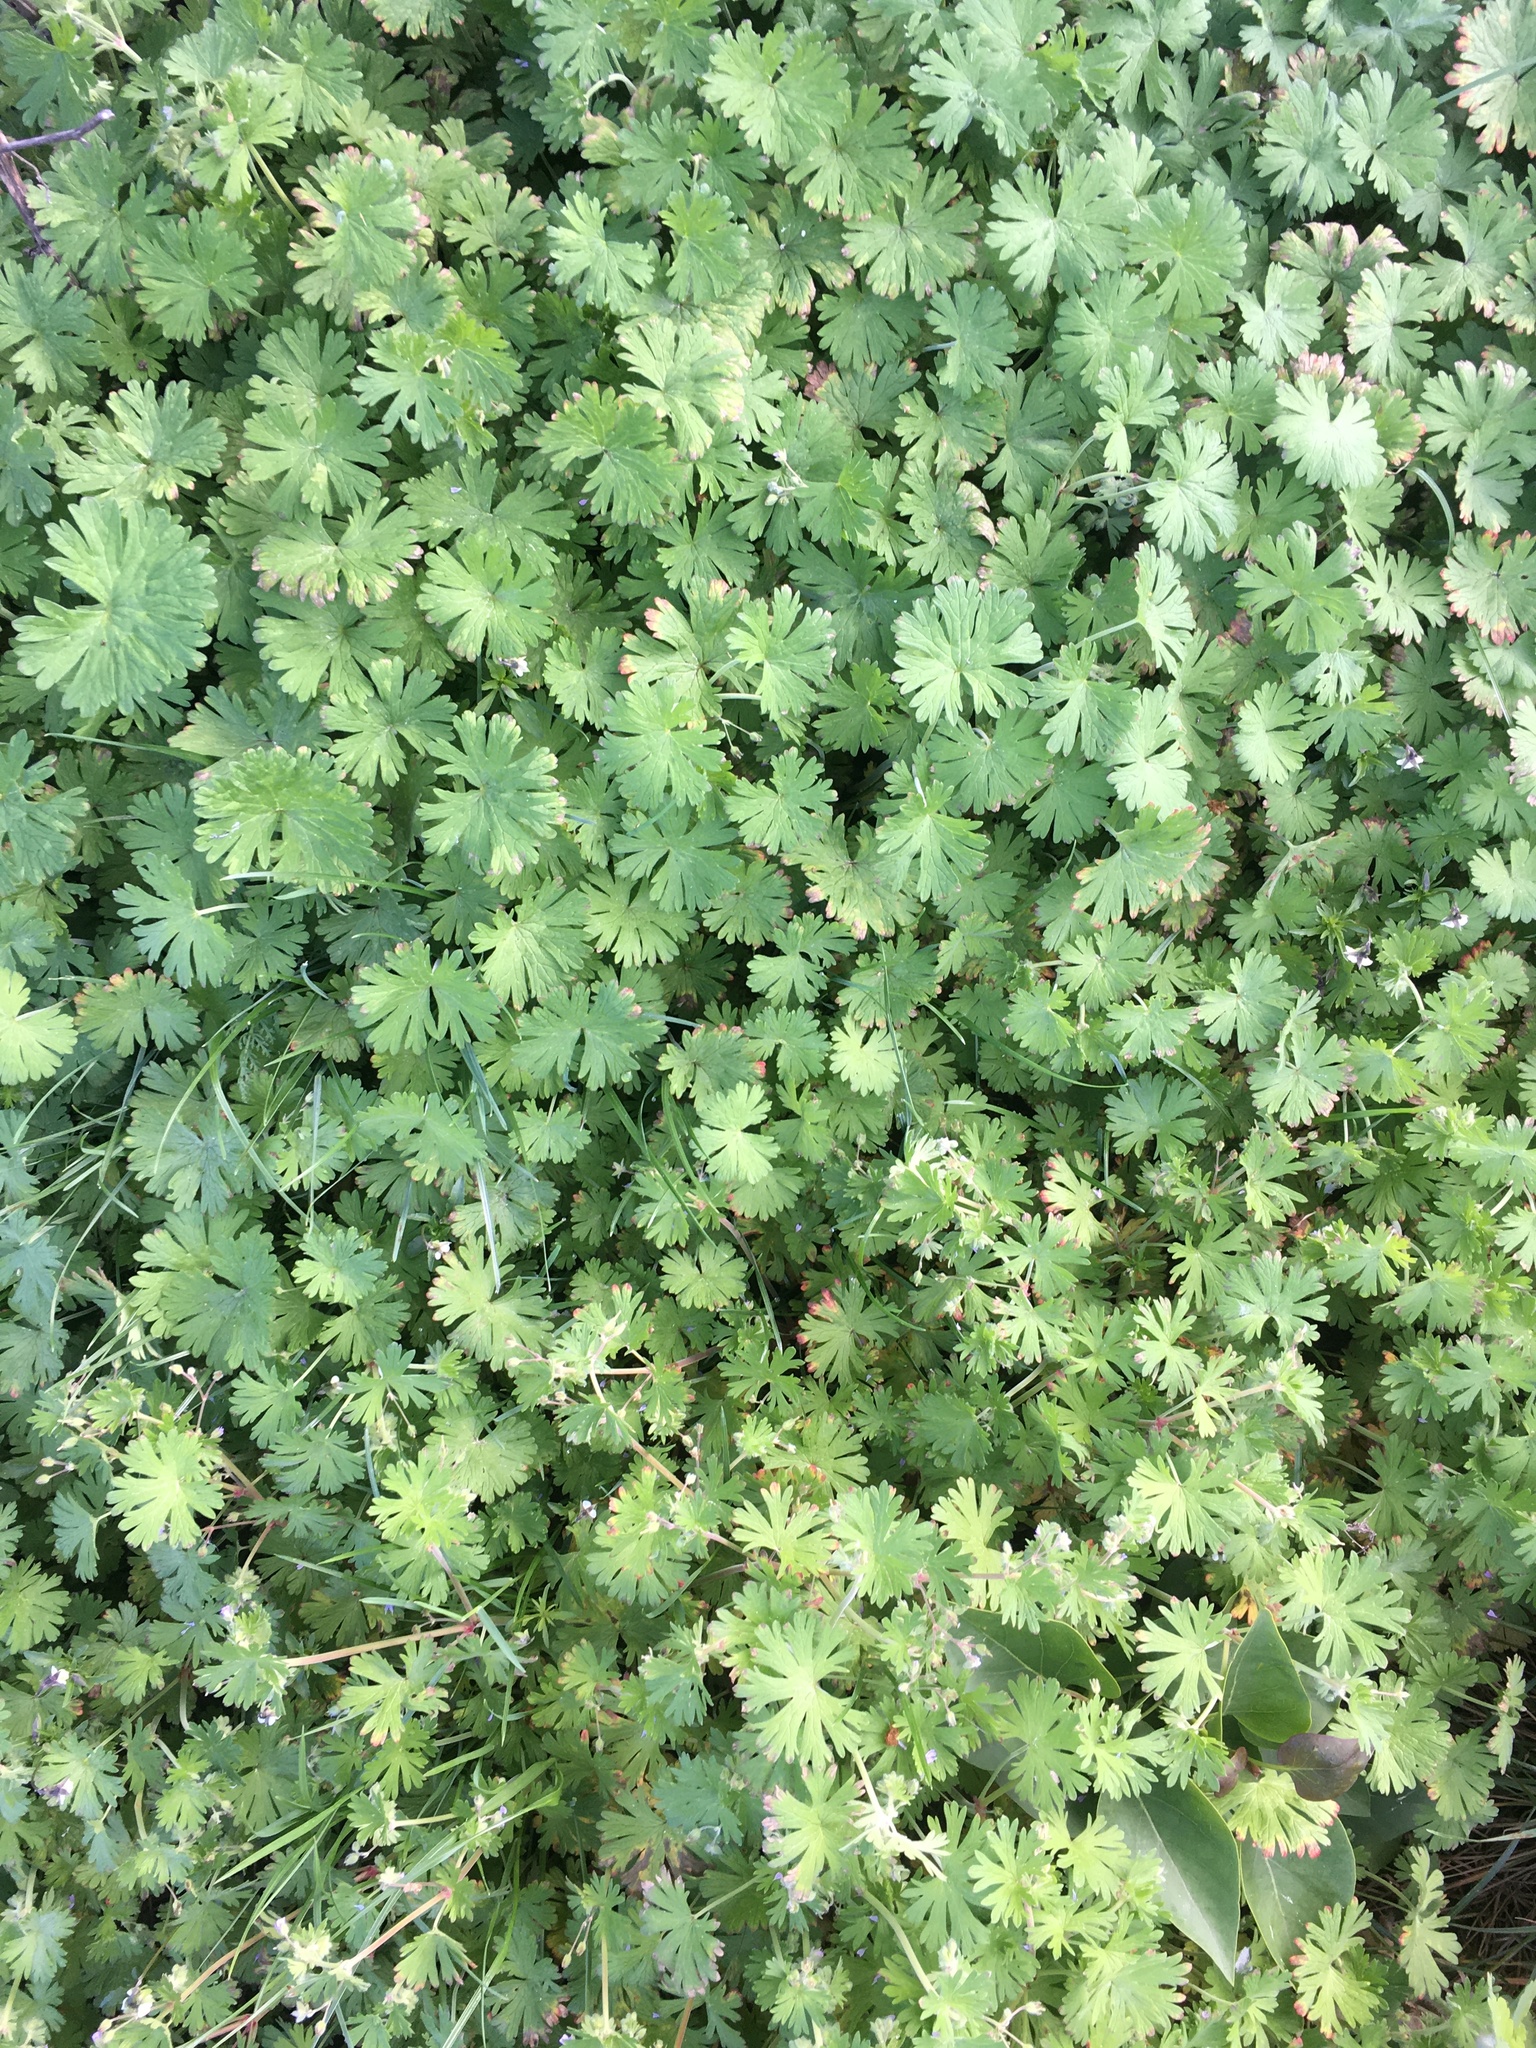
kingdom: Plantae
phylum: Tracheophyta
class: Magnoliopsida
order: Geraniales
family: Geraniaceae
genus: Geranium
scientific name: Geranium pusillum
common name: Small geranium
